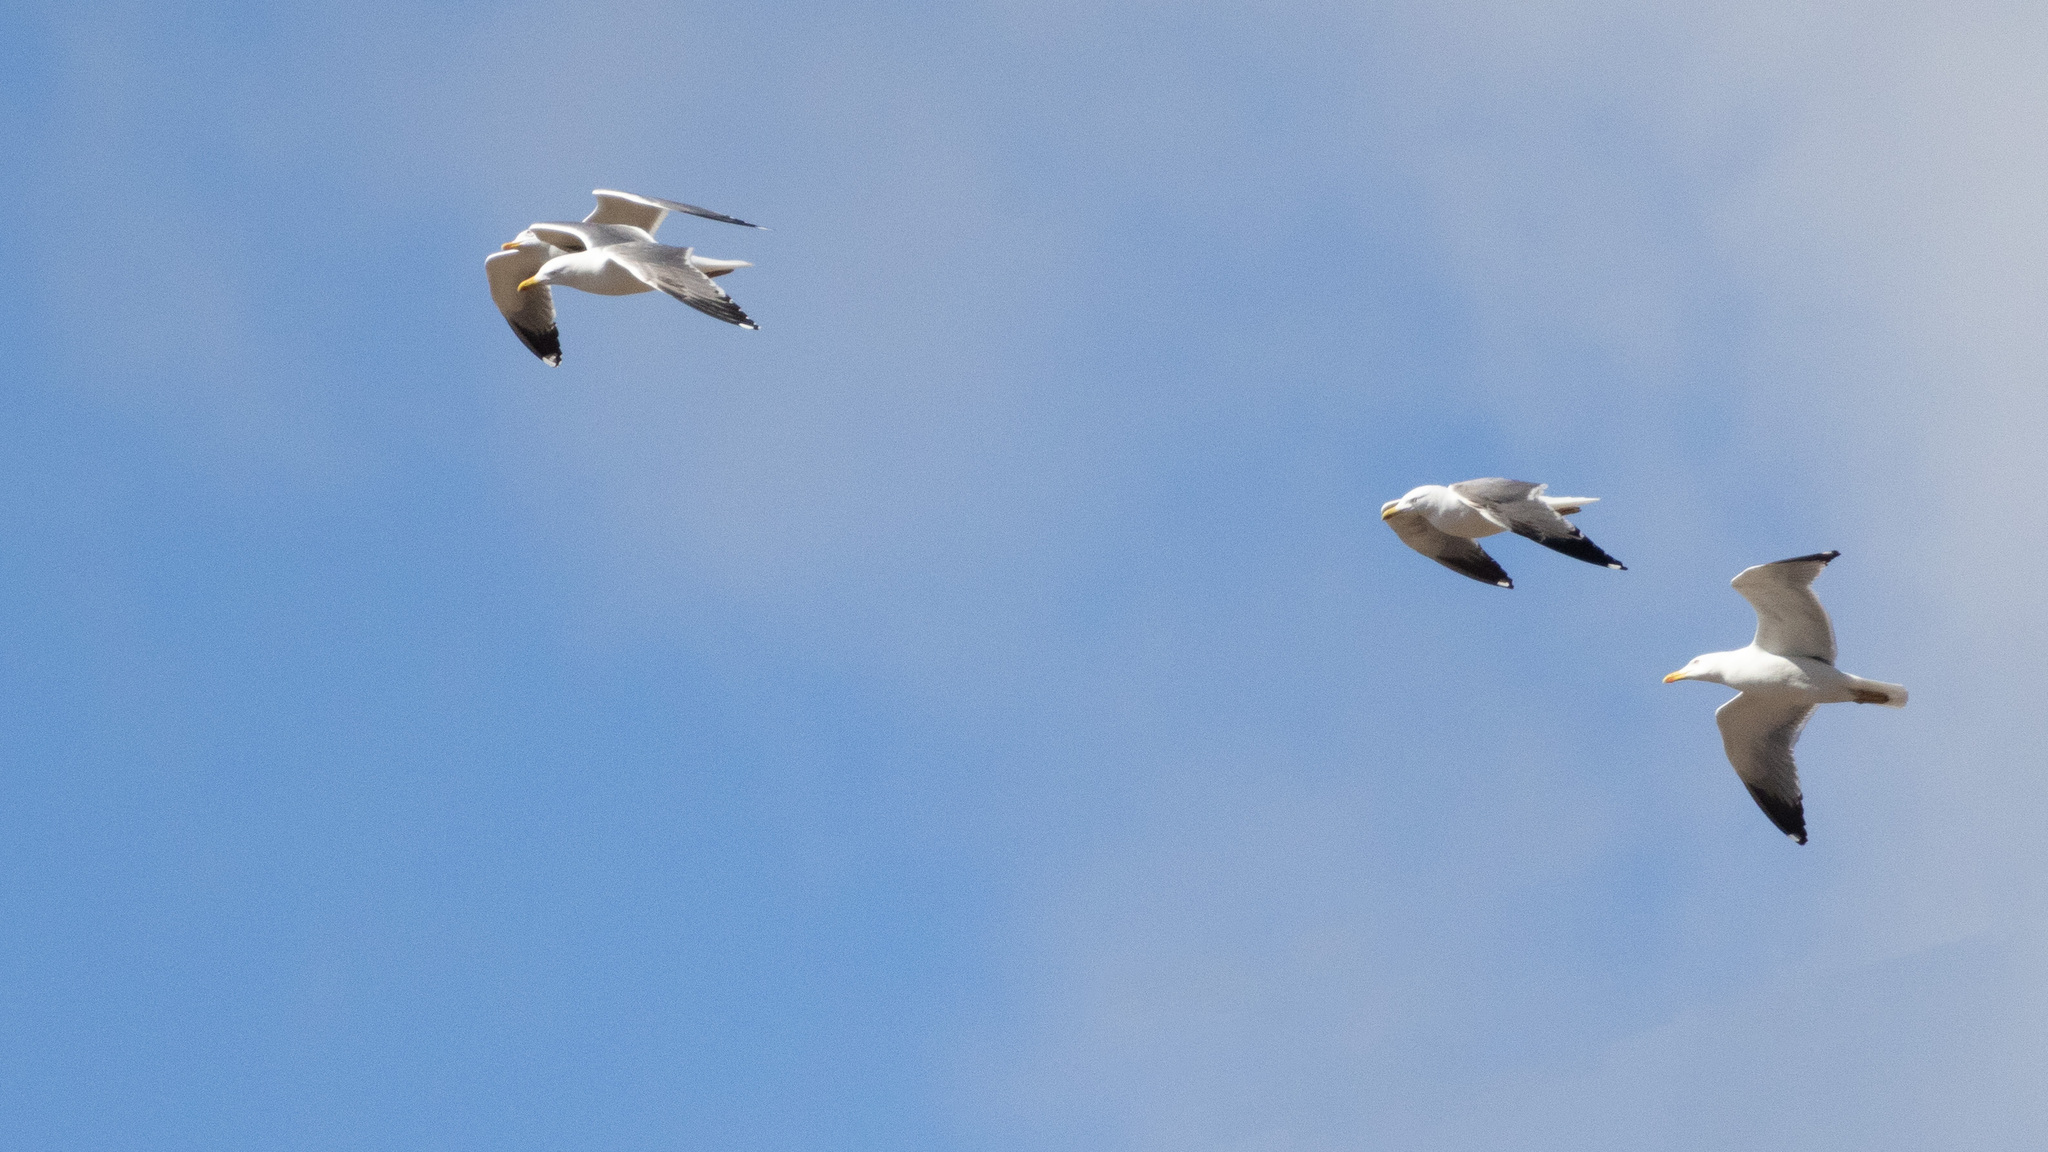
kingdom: Animalia
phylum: Chordata
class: Aves
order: Charadriiformes
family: Laridae
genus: Larus
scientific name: Larus michahellis
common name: Yellow-legged gull
